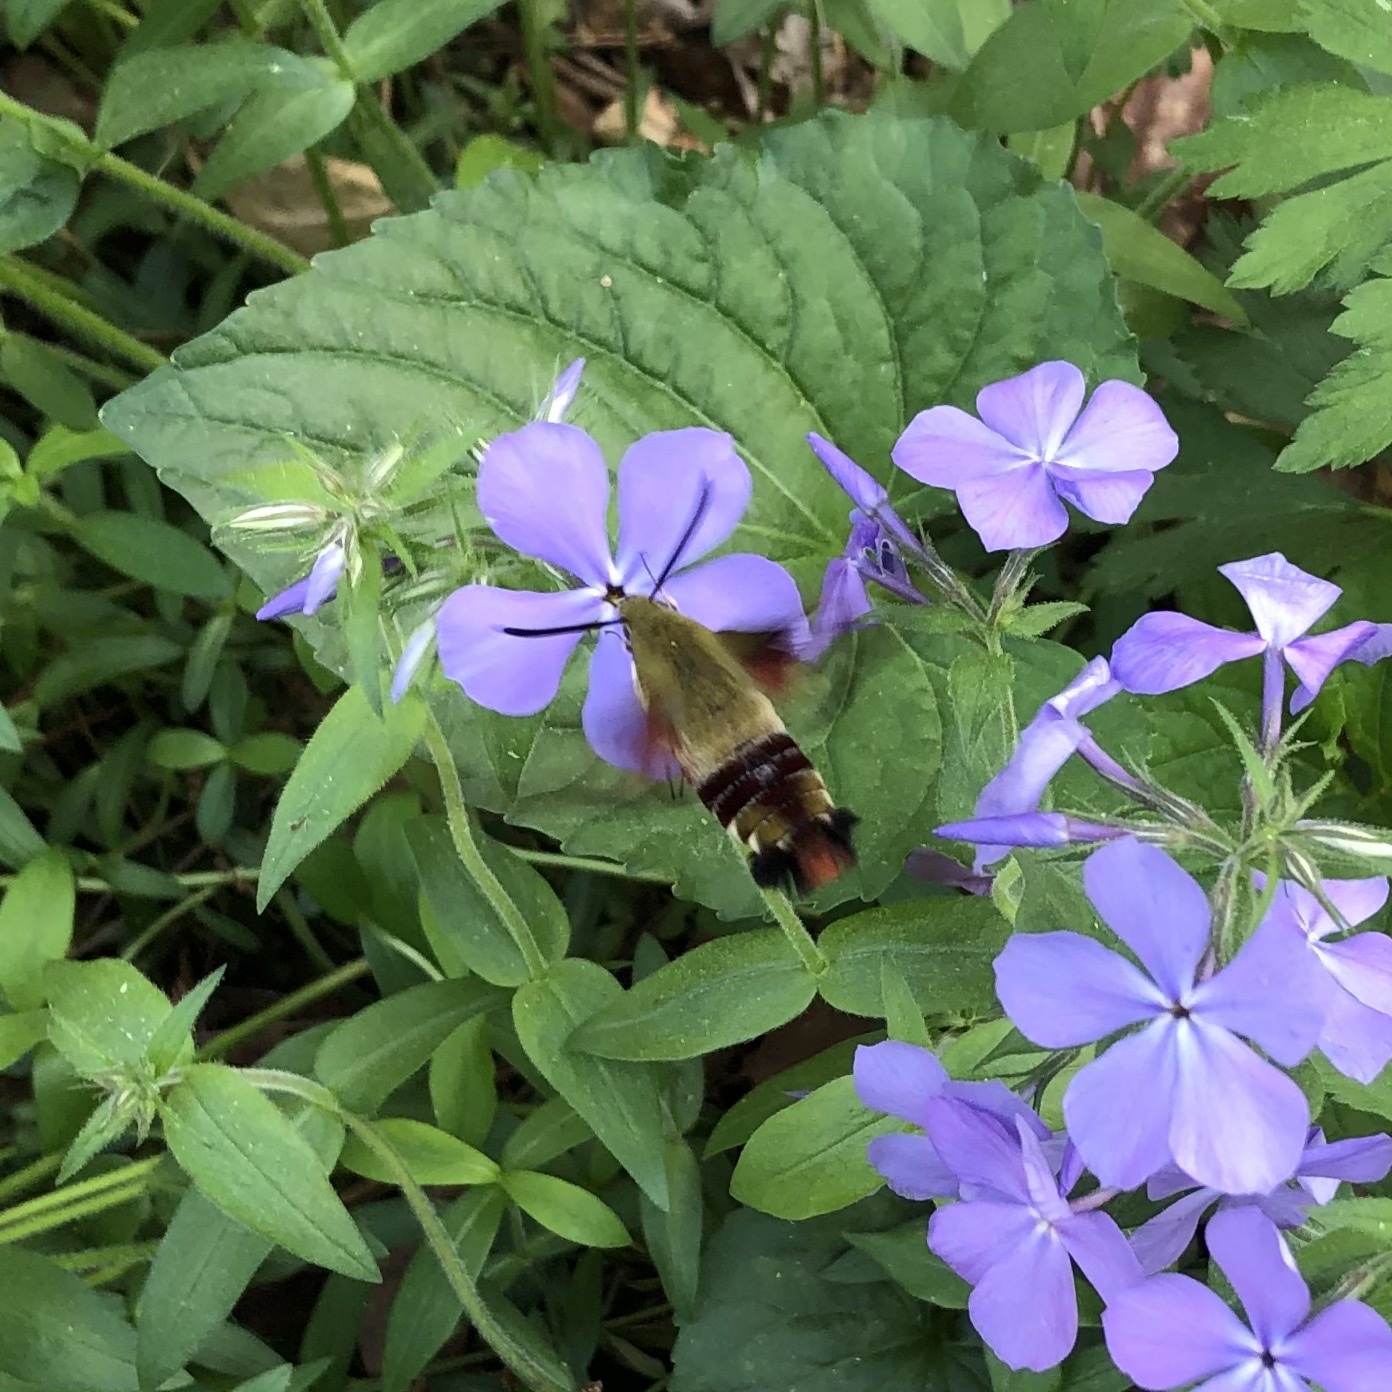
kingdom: Animalia
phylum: Arthropoda
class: Insecta
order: Lepidoptera
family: Sphingidae
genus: Hemaris
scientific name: Hemaris thysbe
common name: Common clear-wing
